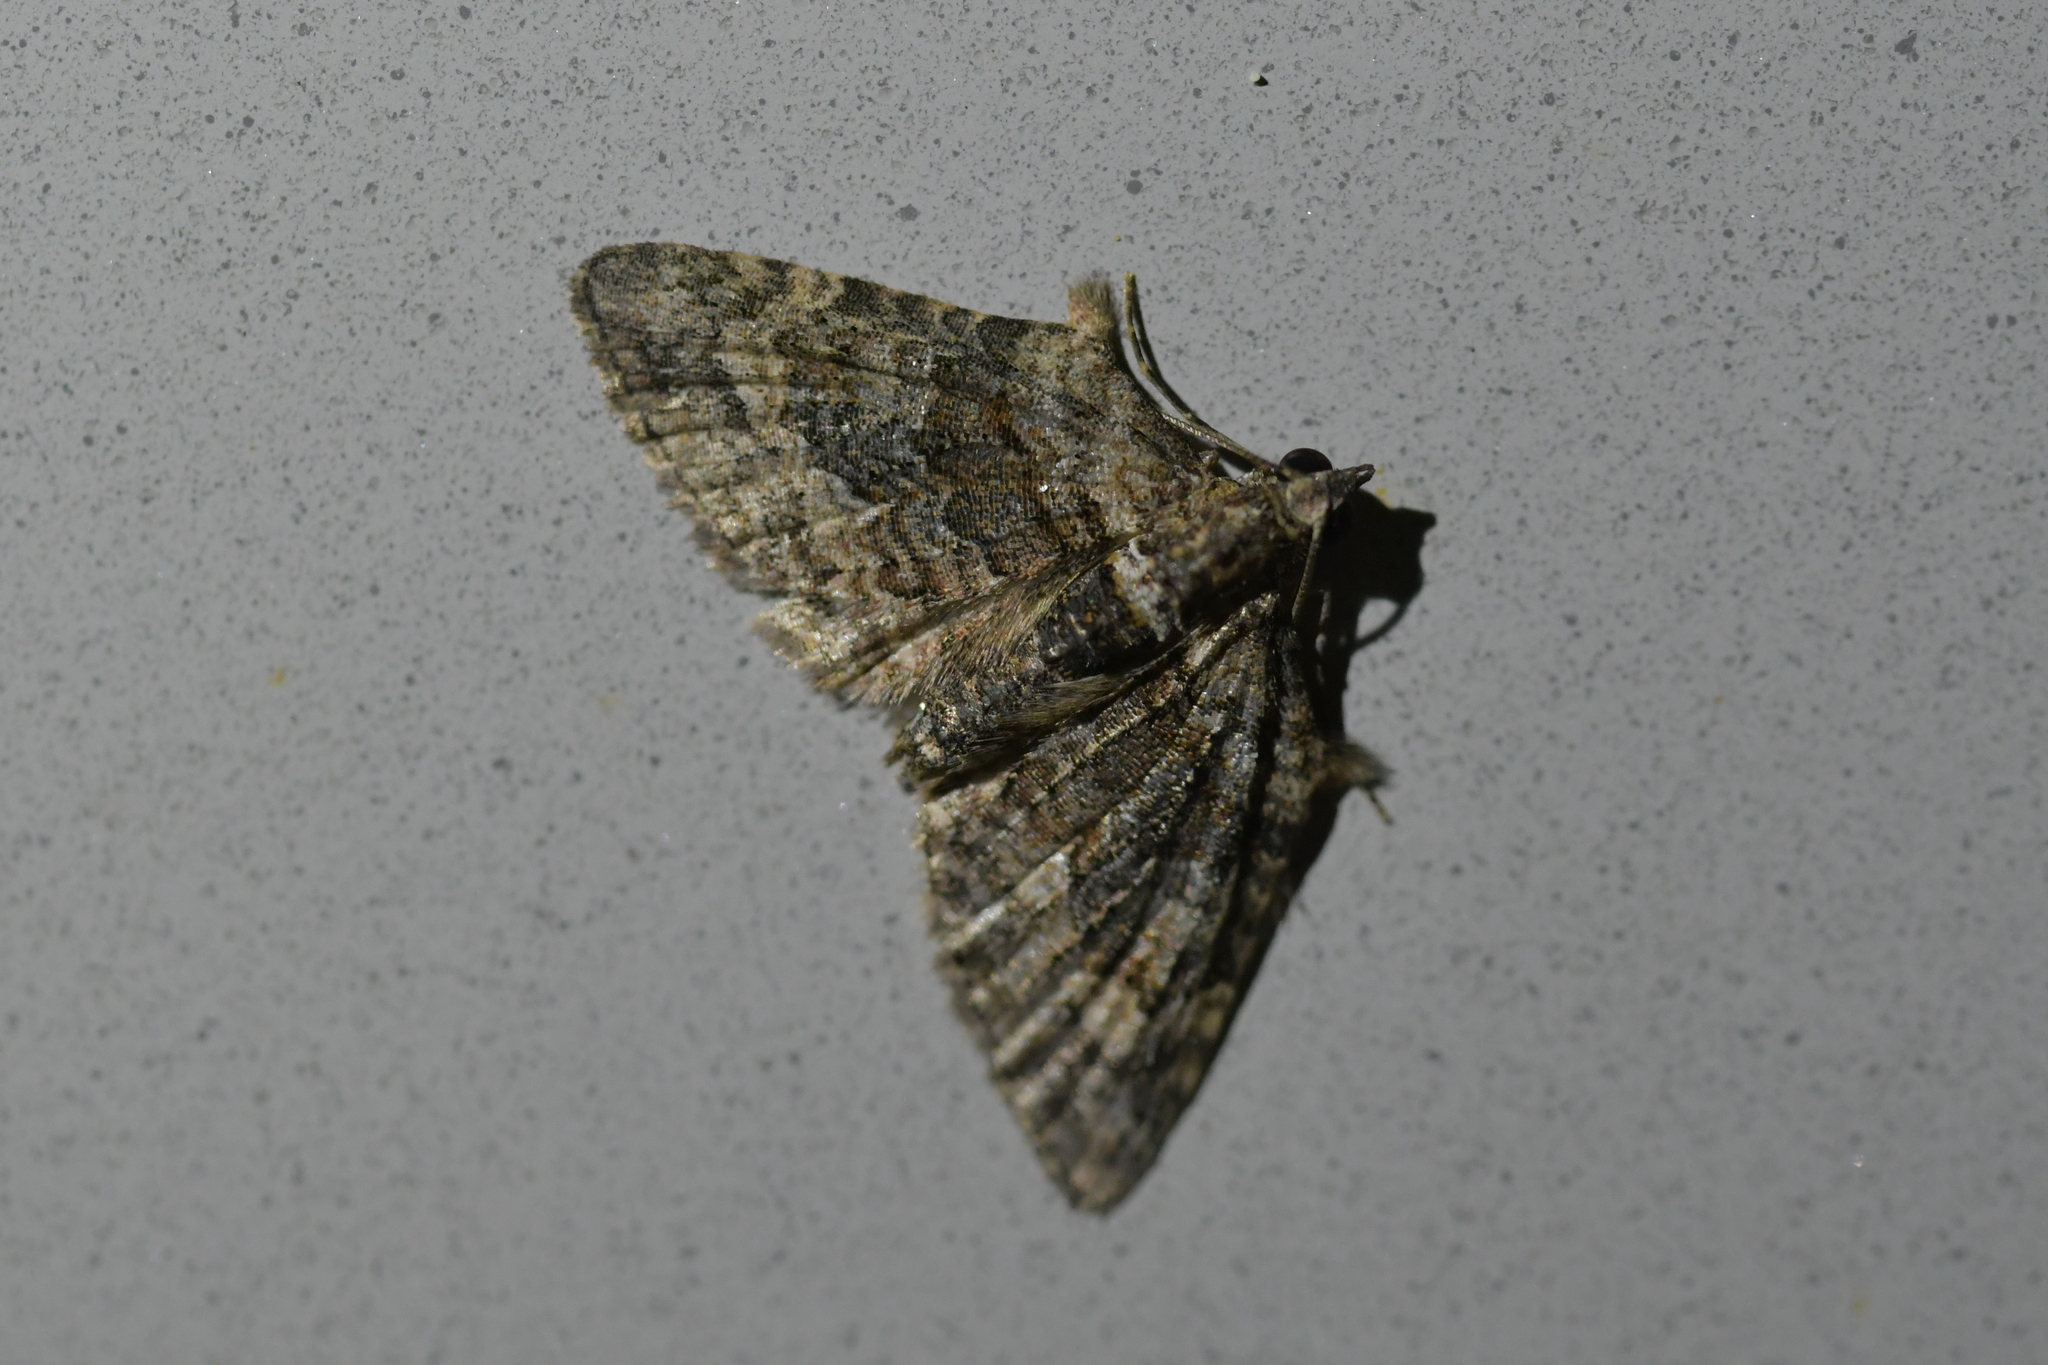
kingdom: Animalia
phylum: Arthropoda
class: Insecta
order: Lepidoptera
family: Geometridae
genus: Phrissogonus
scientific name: Phrissogonus laticostata
